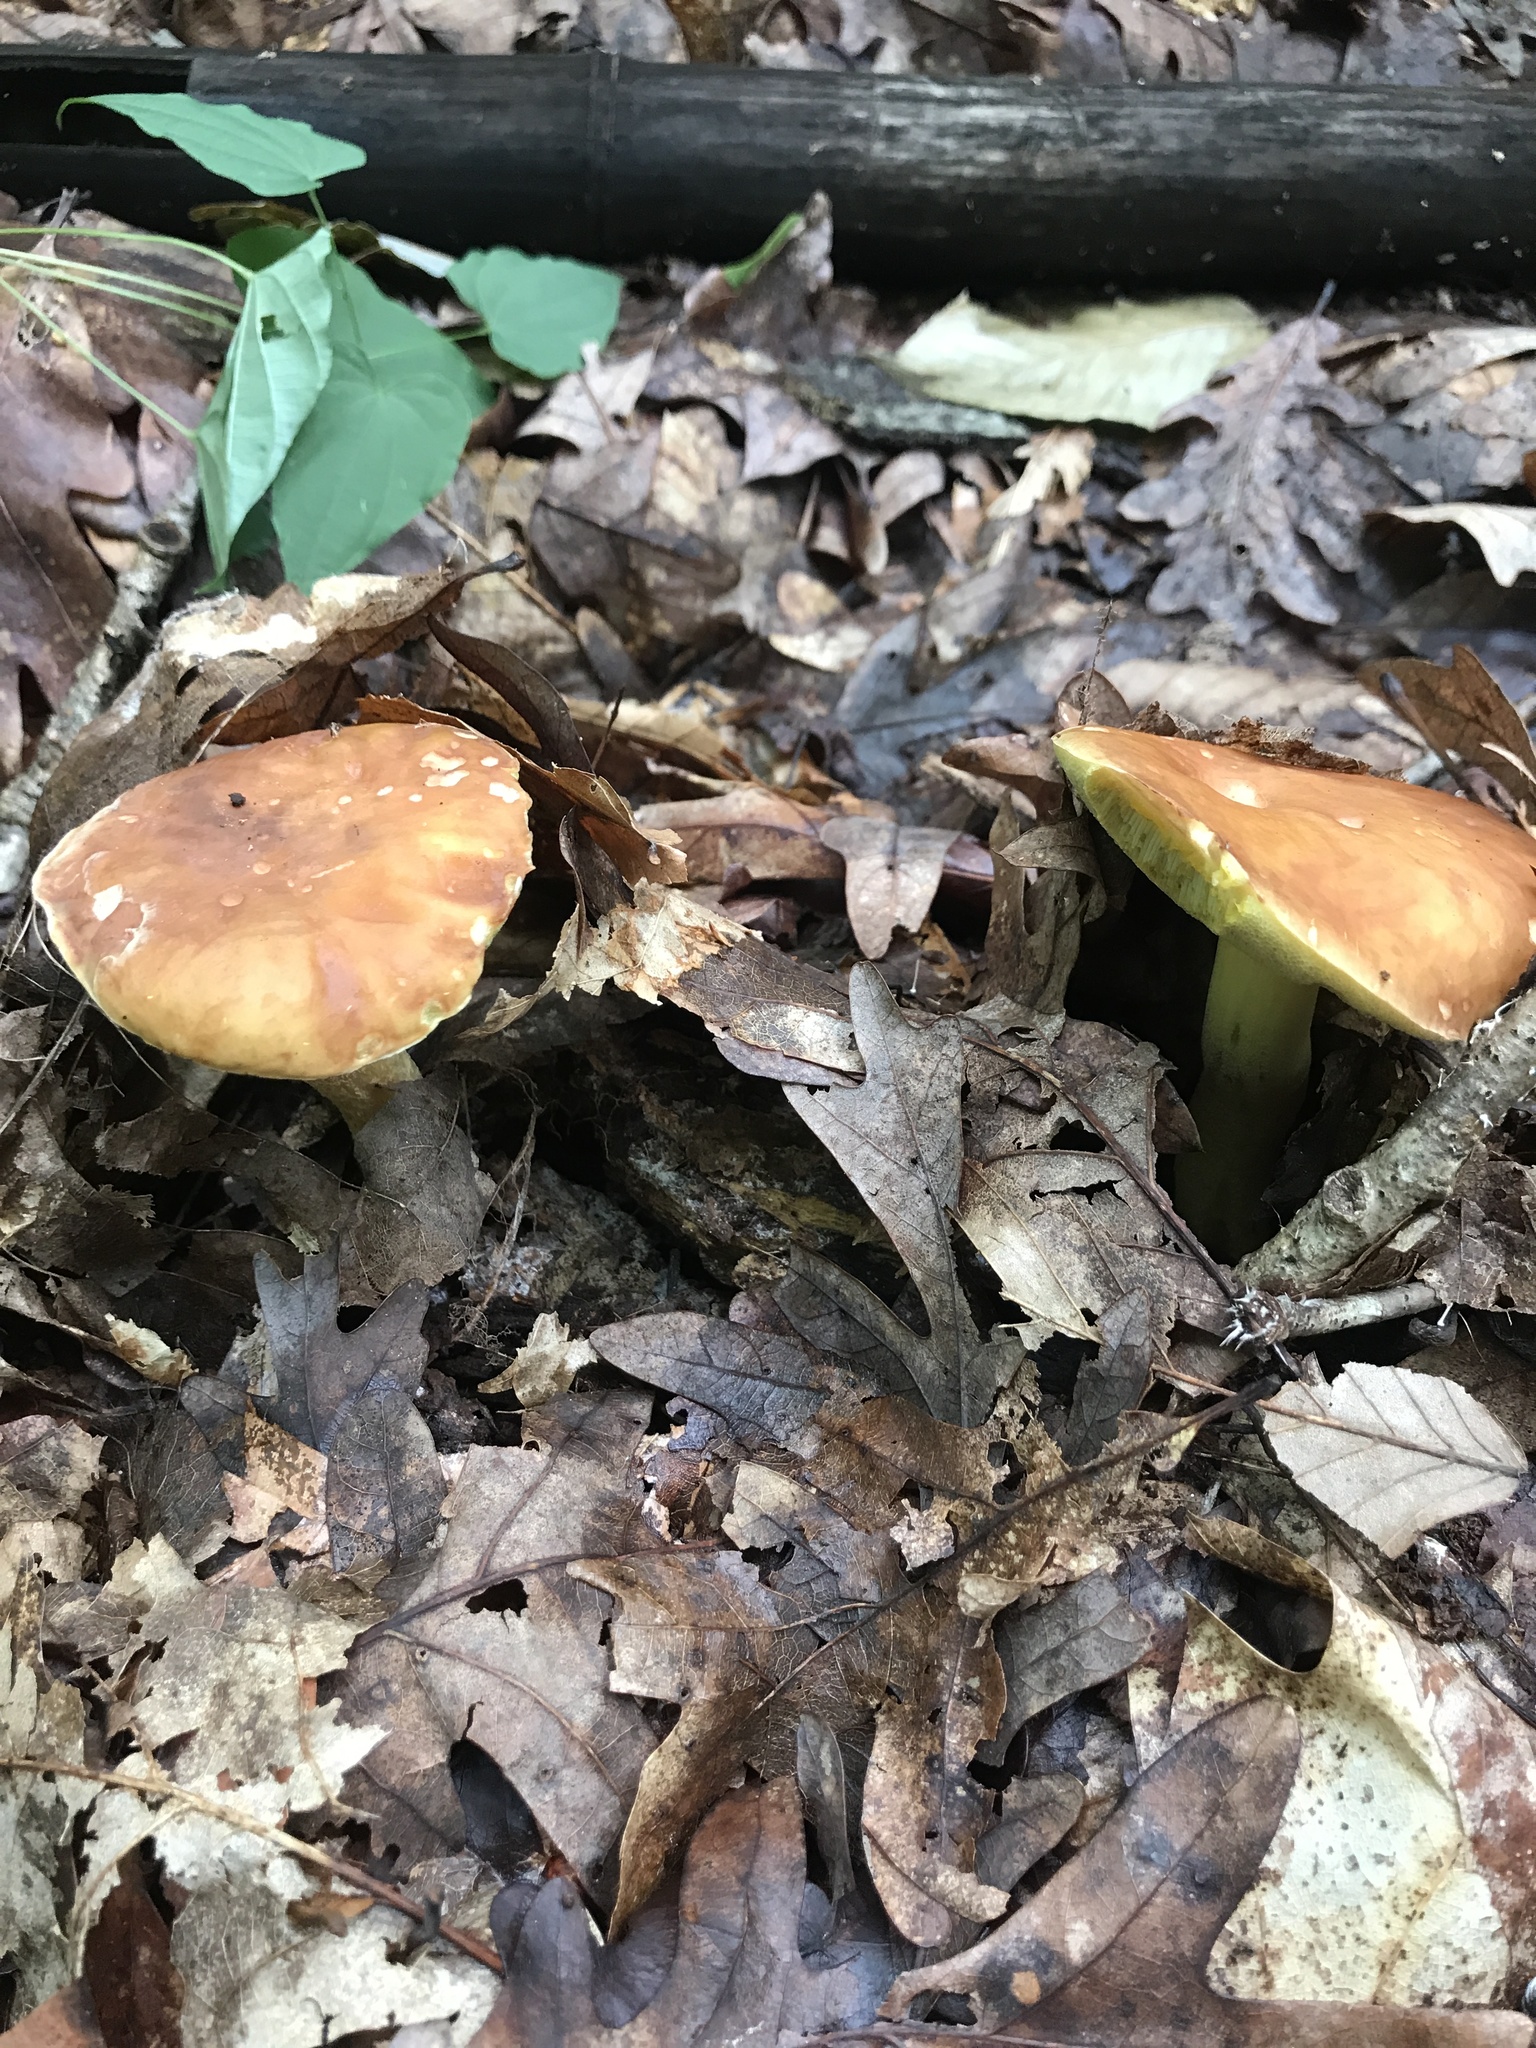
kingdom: Fungi
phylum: Basidiomycota
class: Agaricomycetes
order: Boletales
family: Boletaceae
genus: Hemileccinum
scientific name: Hemileccinum subglabripes
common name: Smoothish-stemmed bolete
